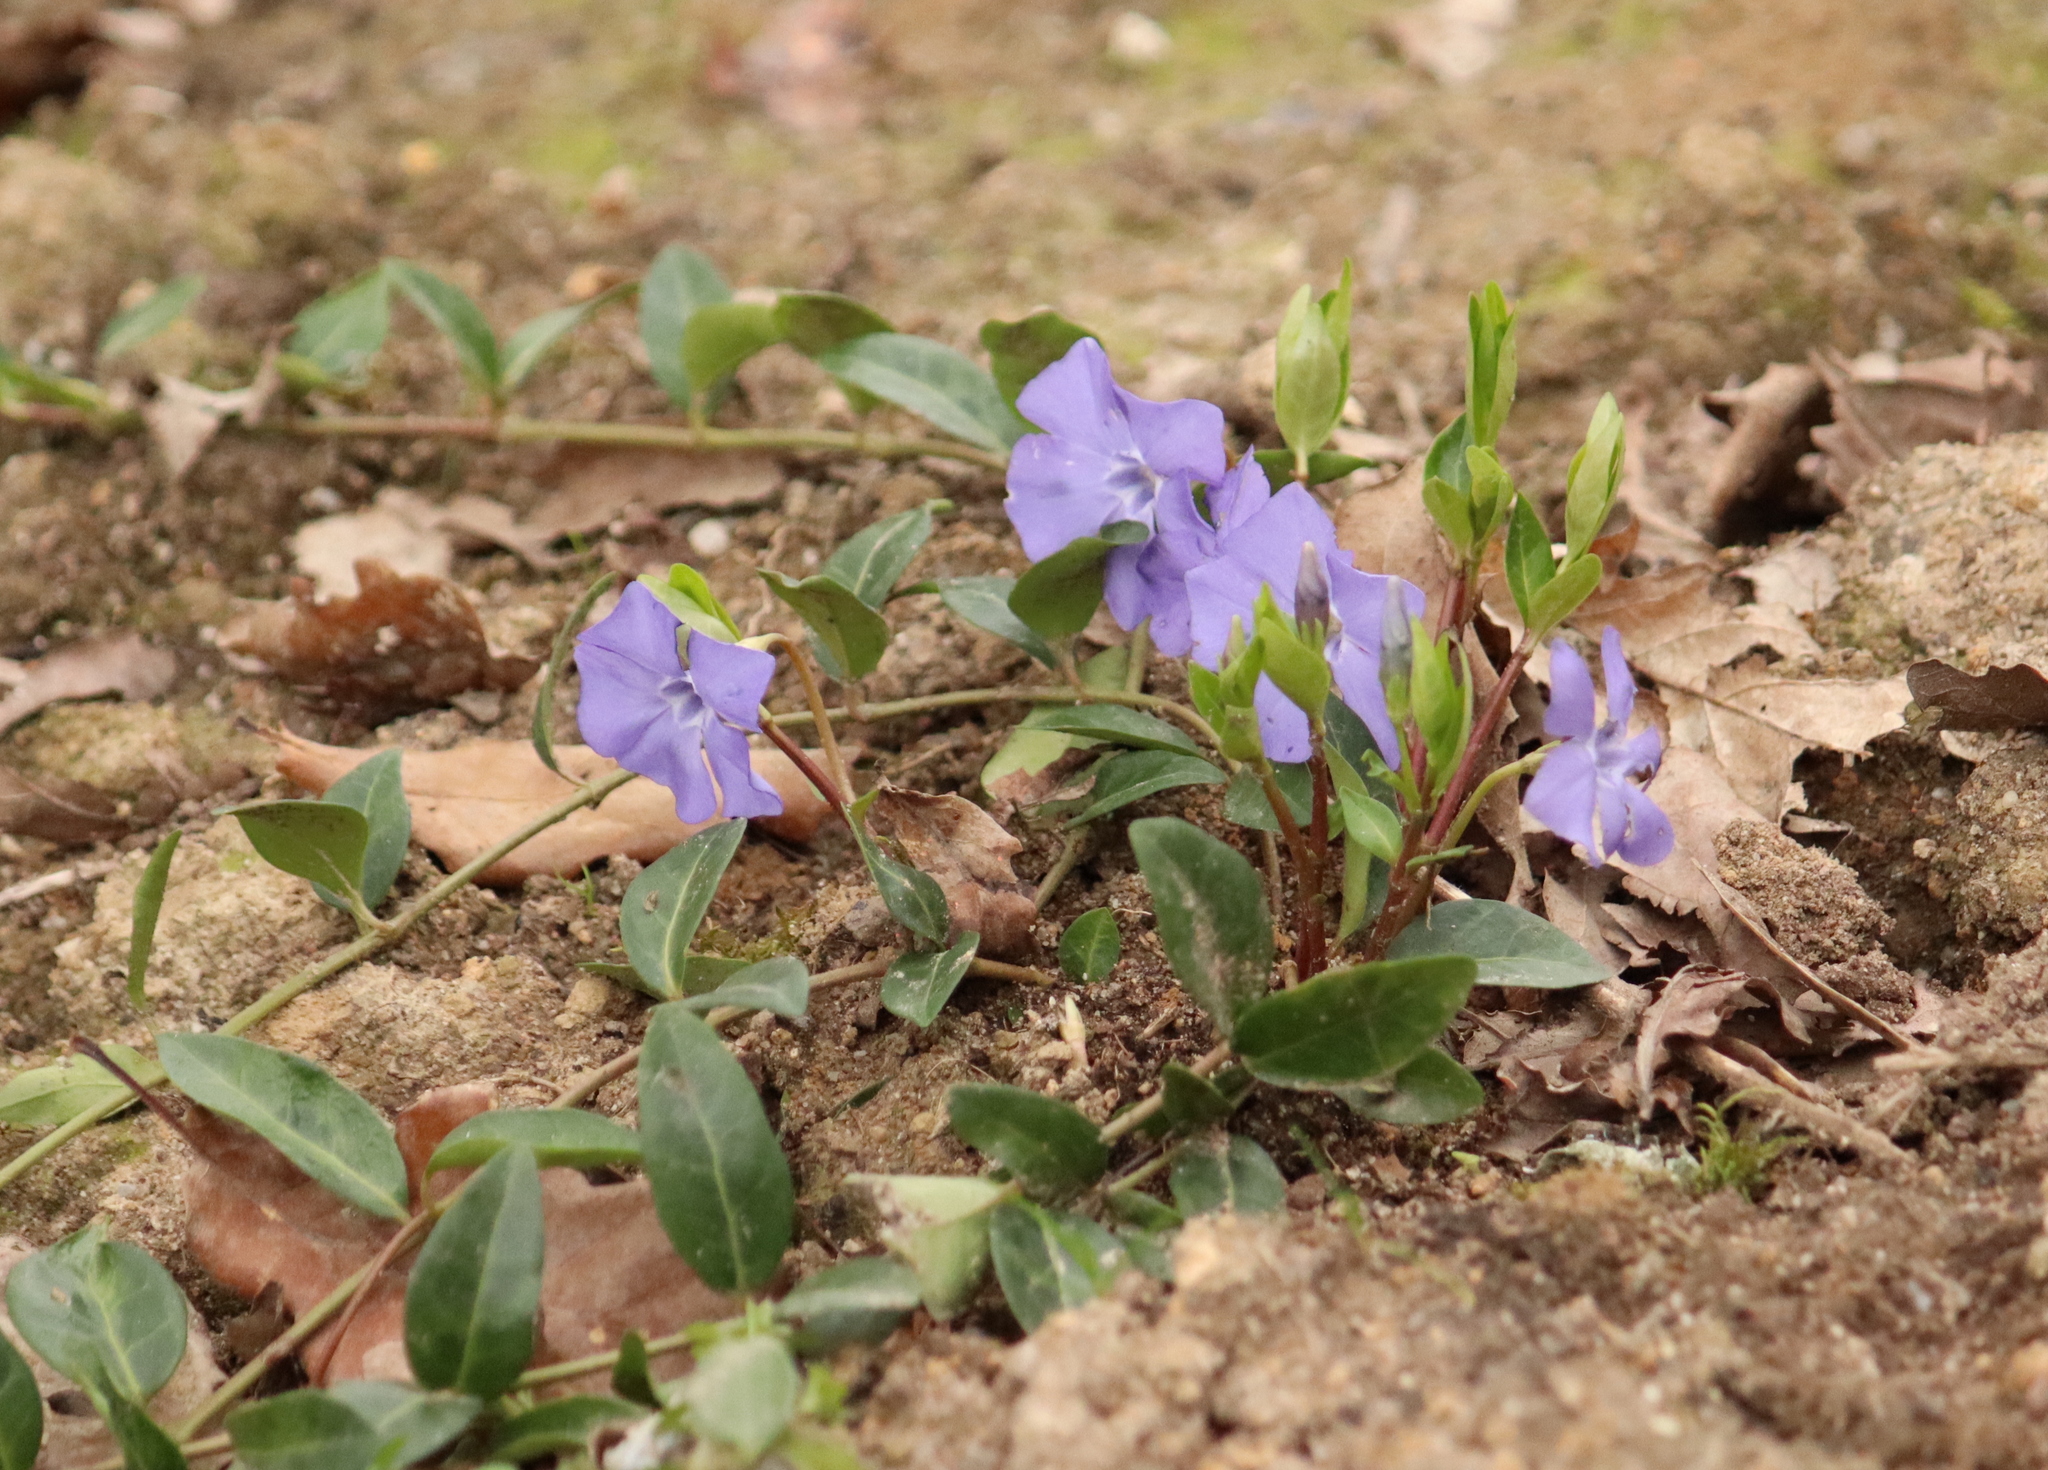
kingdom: Plantae
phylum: Tracheophyta
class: Magnoliopsida
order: Gentianales
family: Apocynaceae
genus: Vinca
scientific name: Vinca minor
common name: Lesser periwinkle
